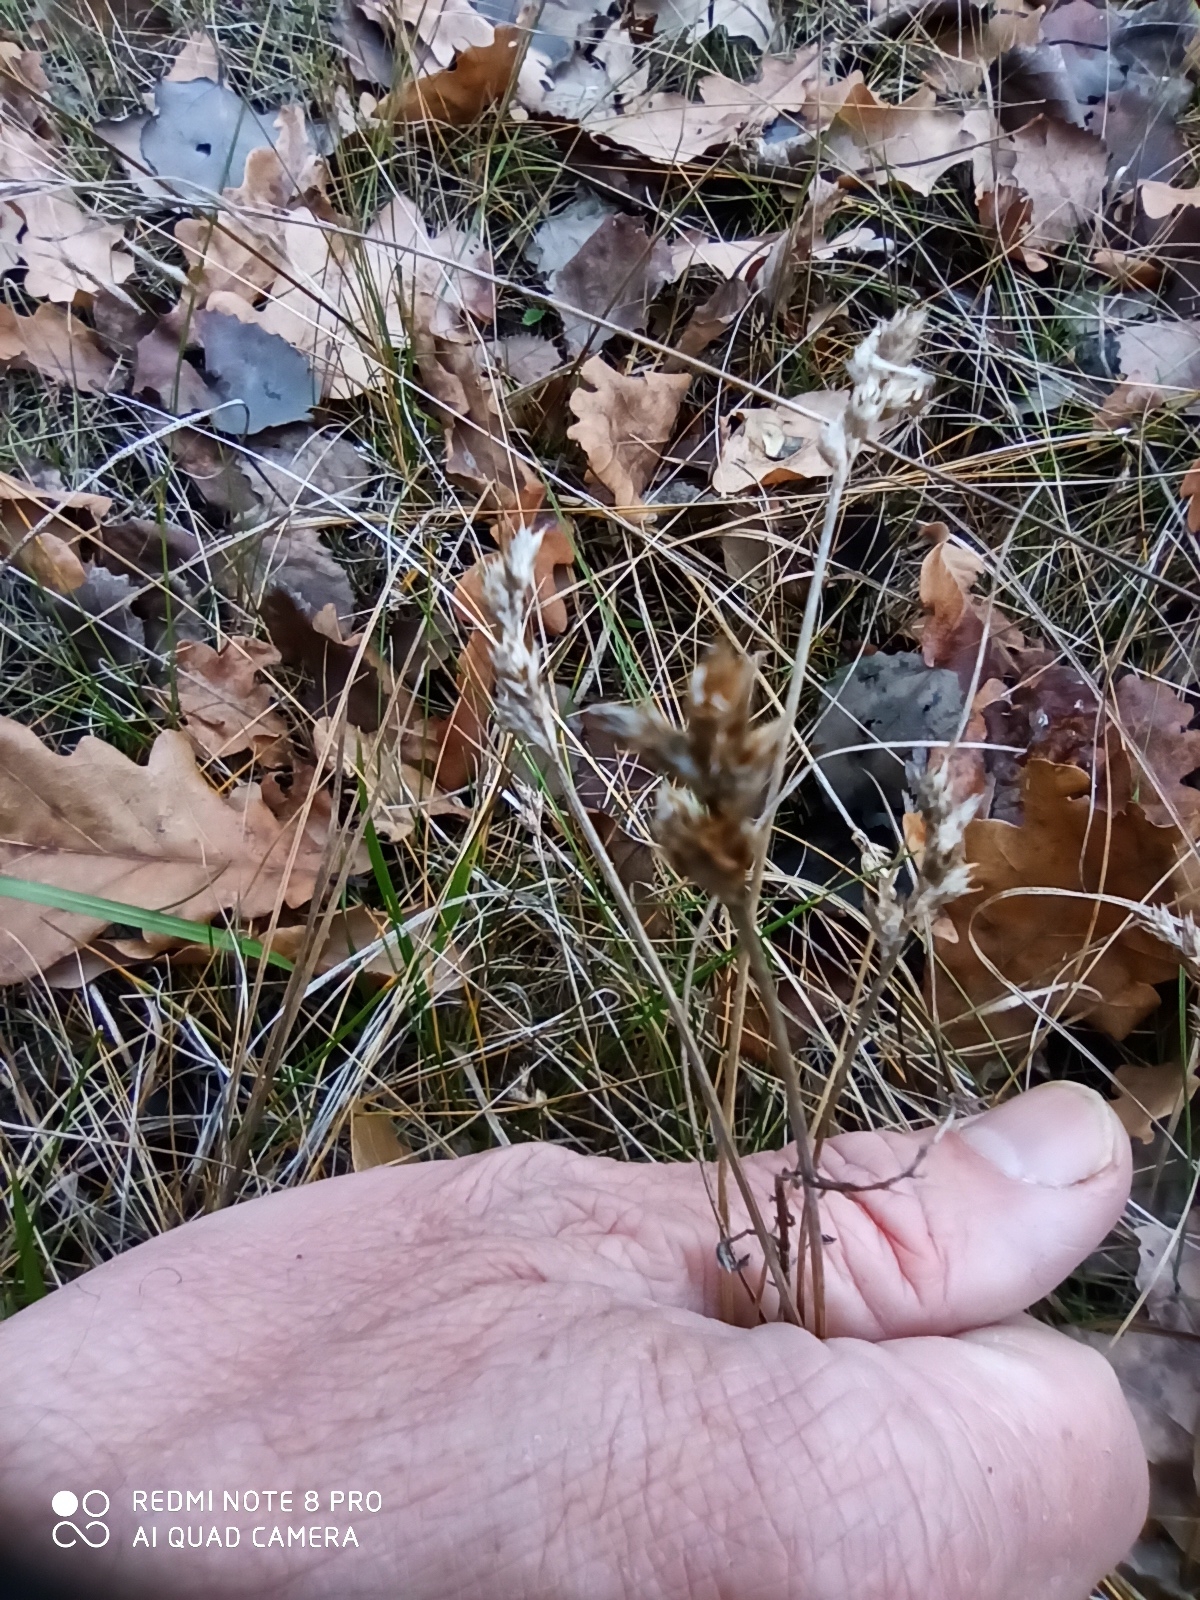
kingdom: Plantae
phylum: Tracheophyta
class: Liliopsida
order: Poales
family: Cyperaceae
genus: Carex
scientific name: Carex leporina
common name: Oval sedge
